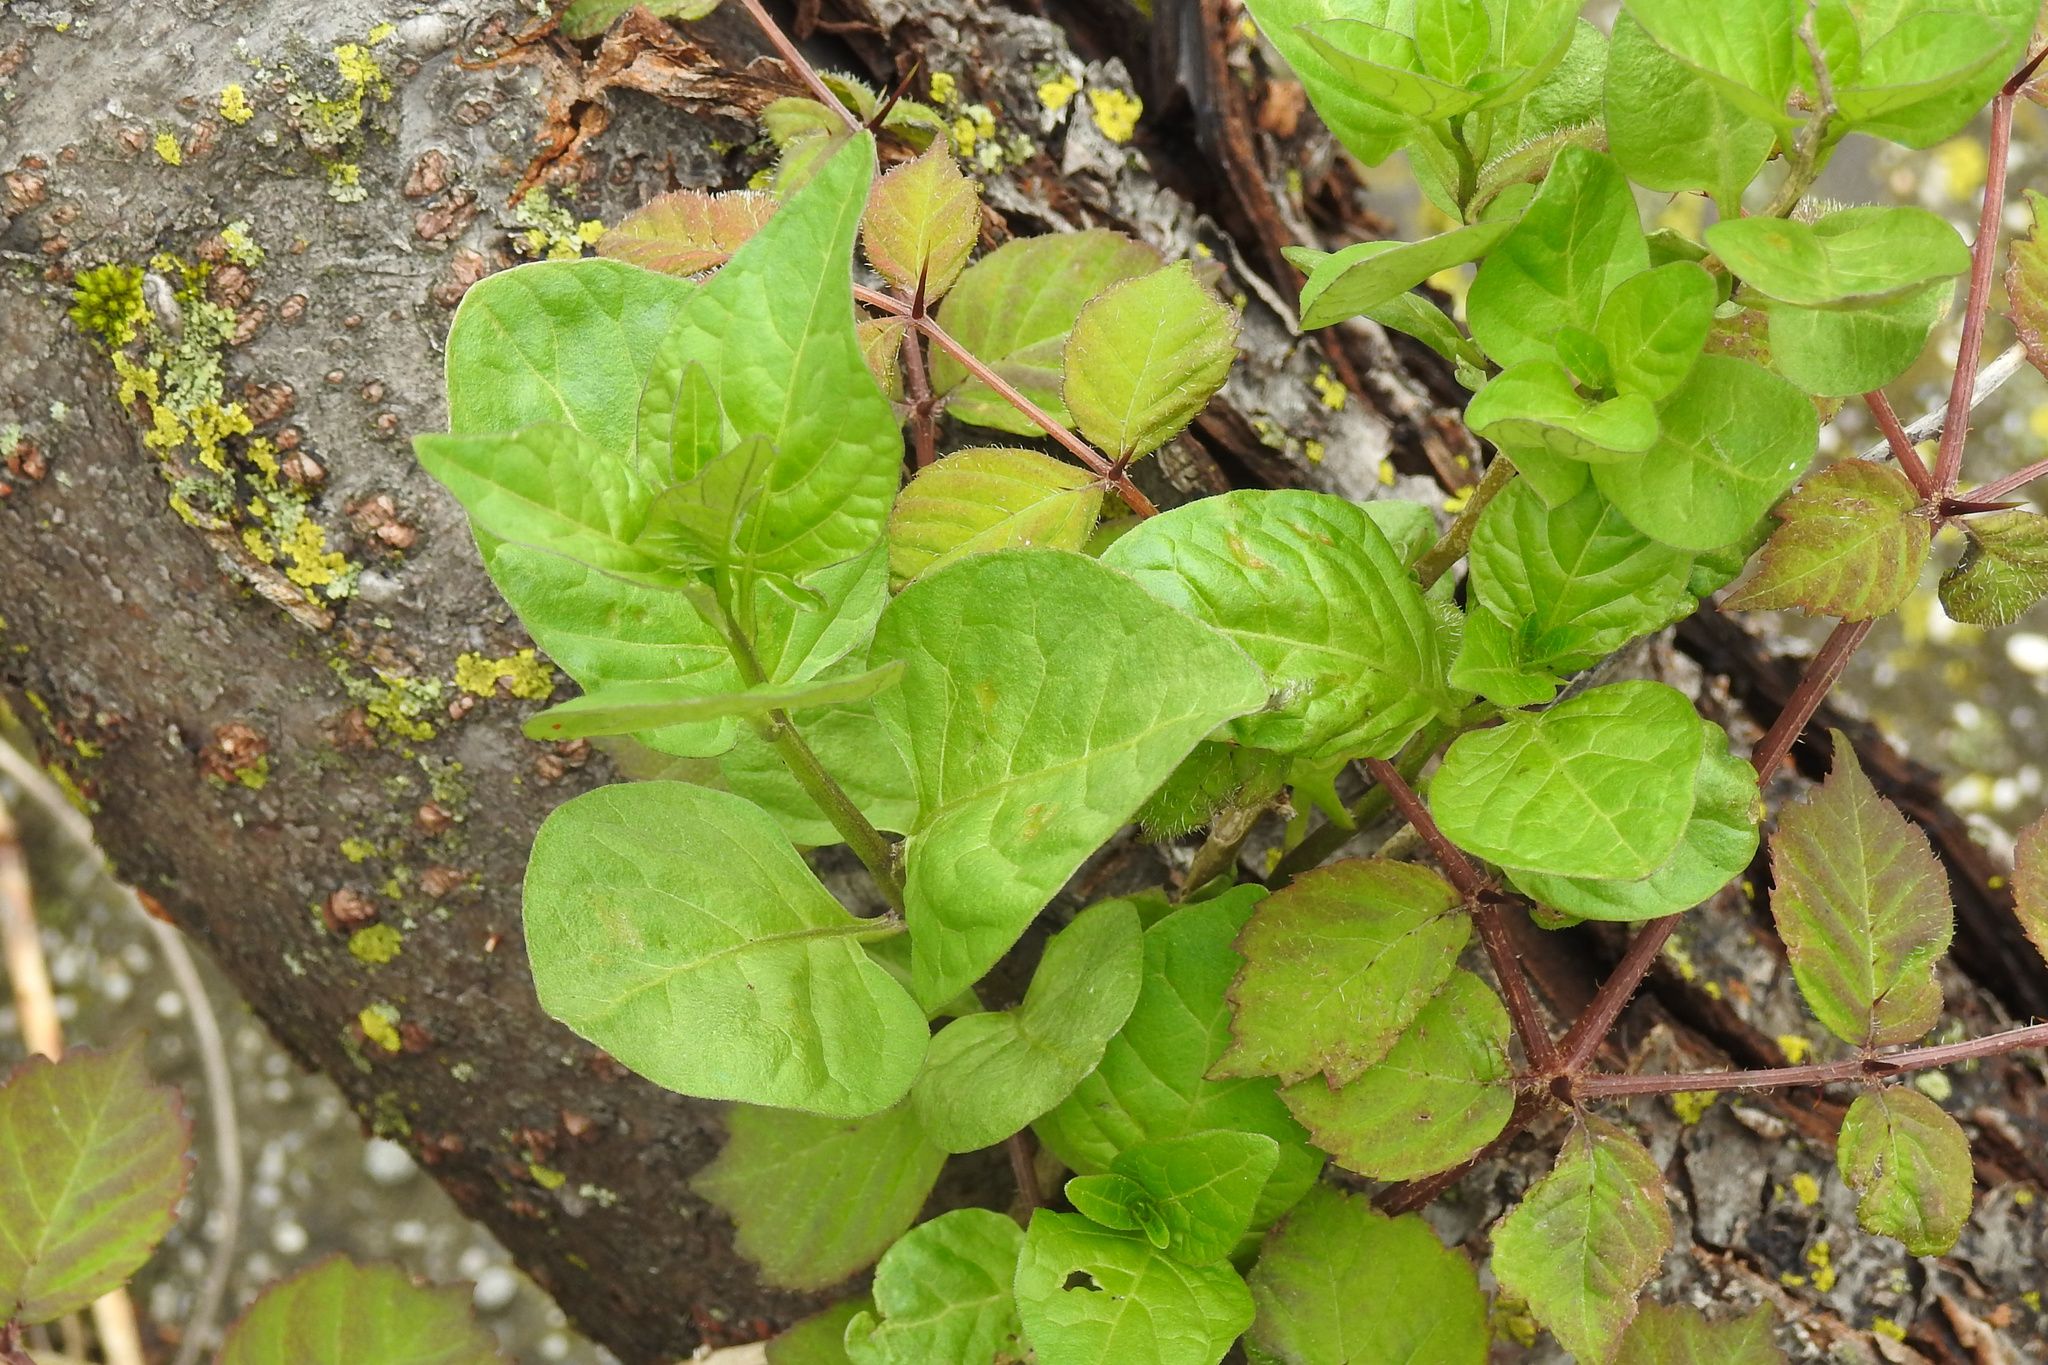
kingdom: Plantae
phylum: Tracheophyta
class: Magnoliopsida
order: Solanales
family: Solanaceae
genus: Solanum
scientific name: Solanum dulcamara
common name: Climbing nightshade
